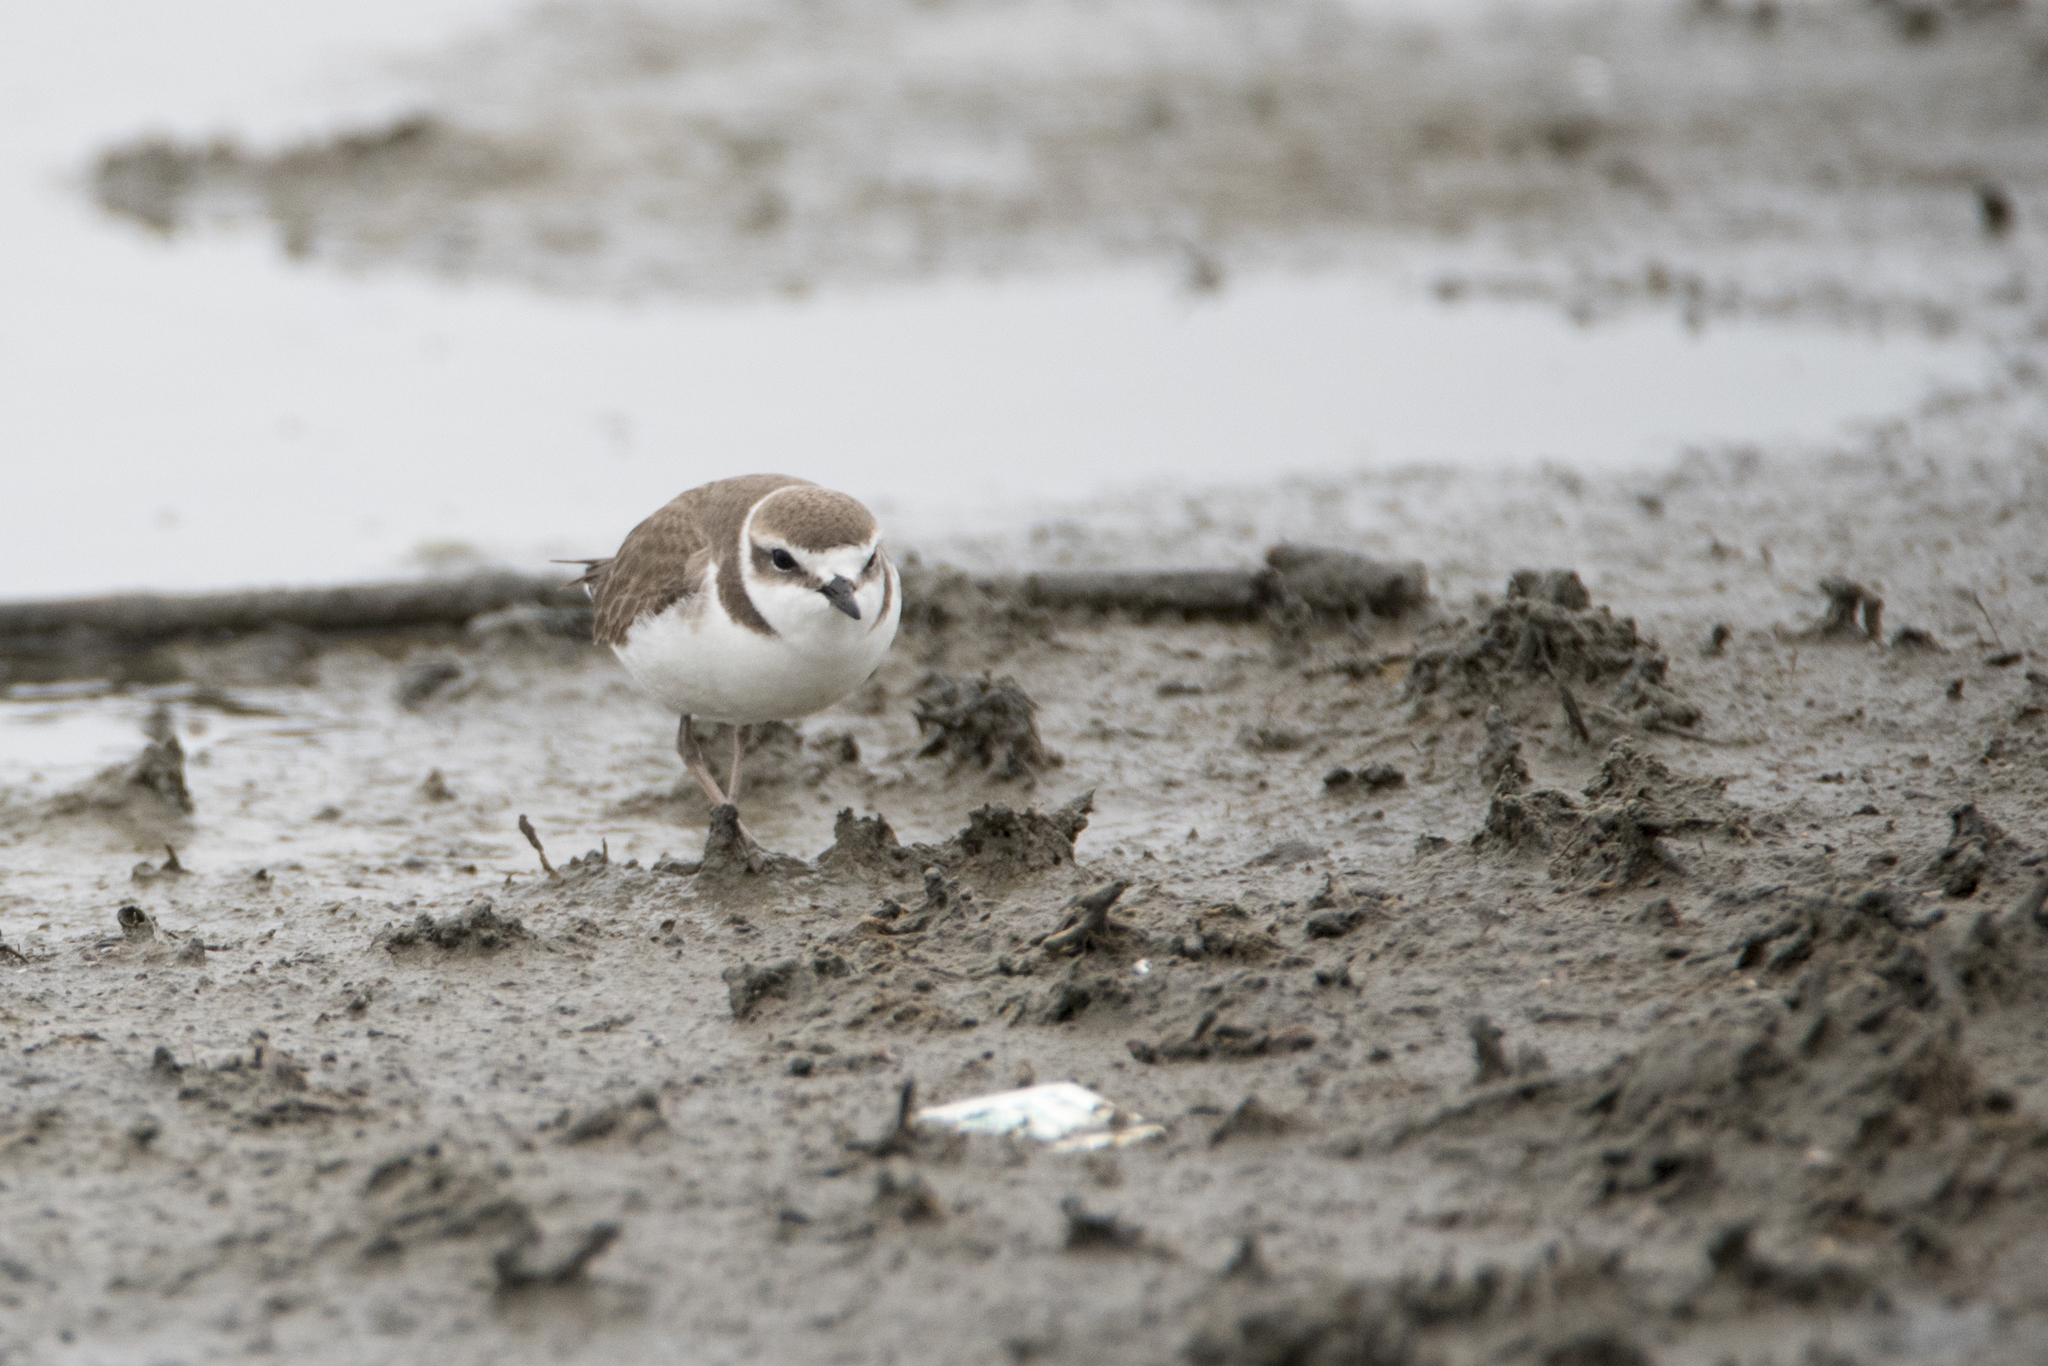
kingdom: Animalia
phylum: Chordata
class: Aves
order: Charadriiformes
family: Charadriidae
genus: Charadrius
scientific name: Charadrius alexandrinus
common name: Kentish plover
